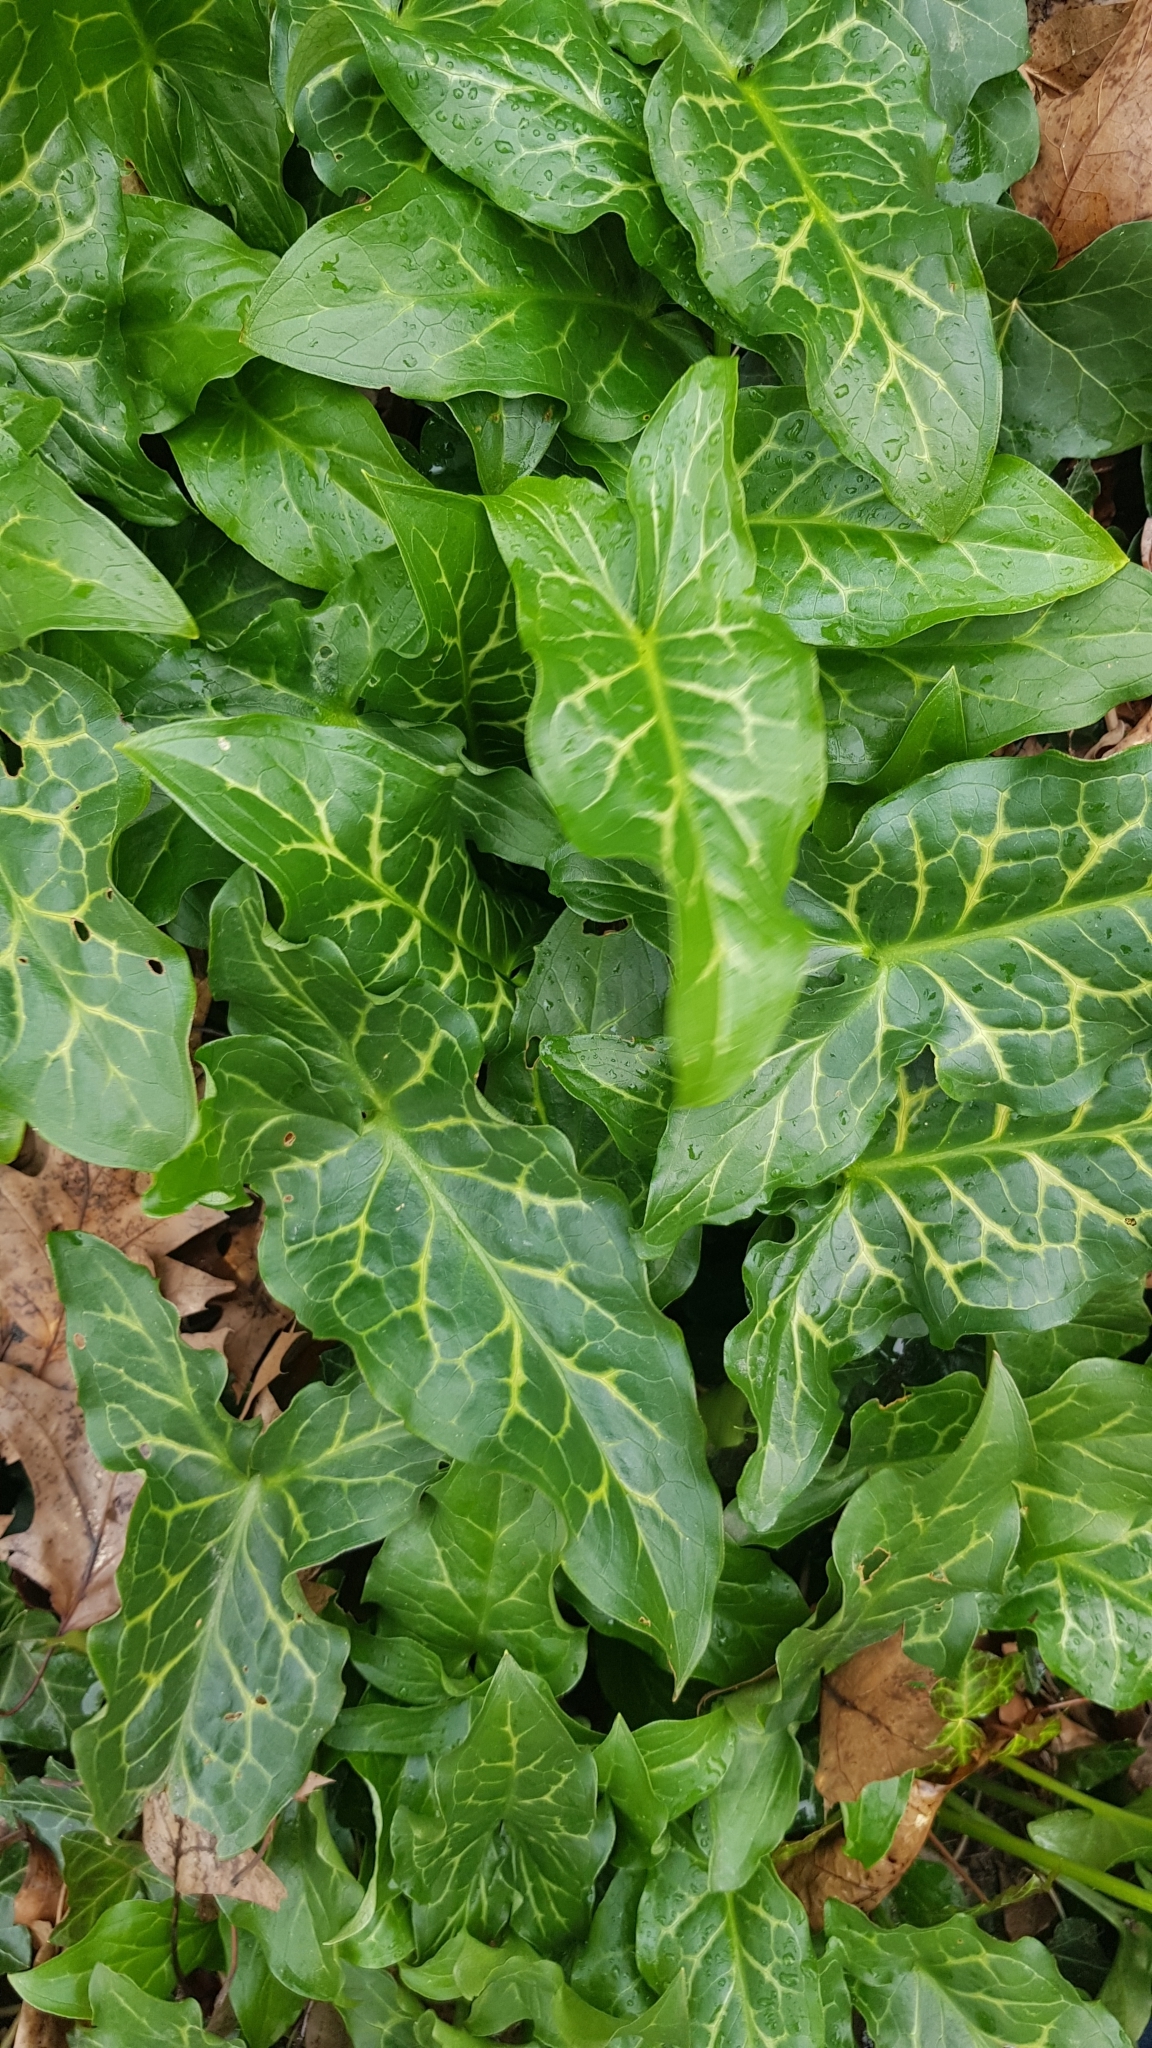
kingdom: Plantae
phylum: Tracheophyta
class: Liliopsida
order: Alismatales
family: Araceae
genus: Arum
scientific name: Arum italicum
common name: Italian lords-and-ladies
